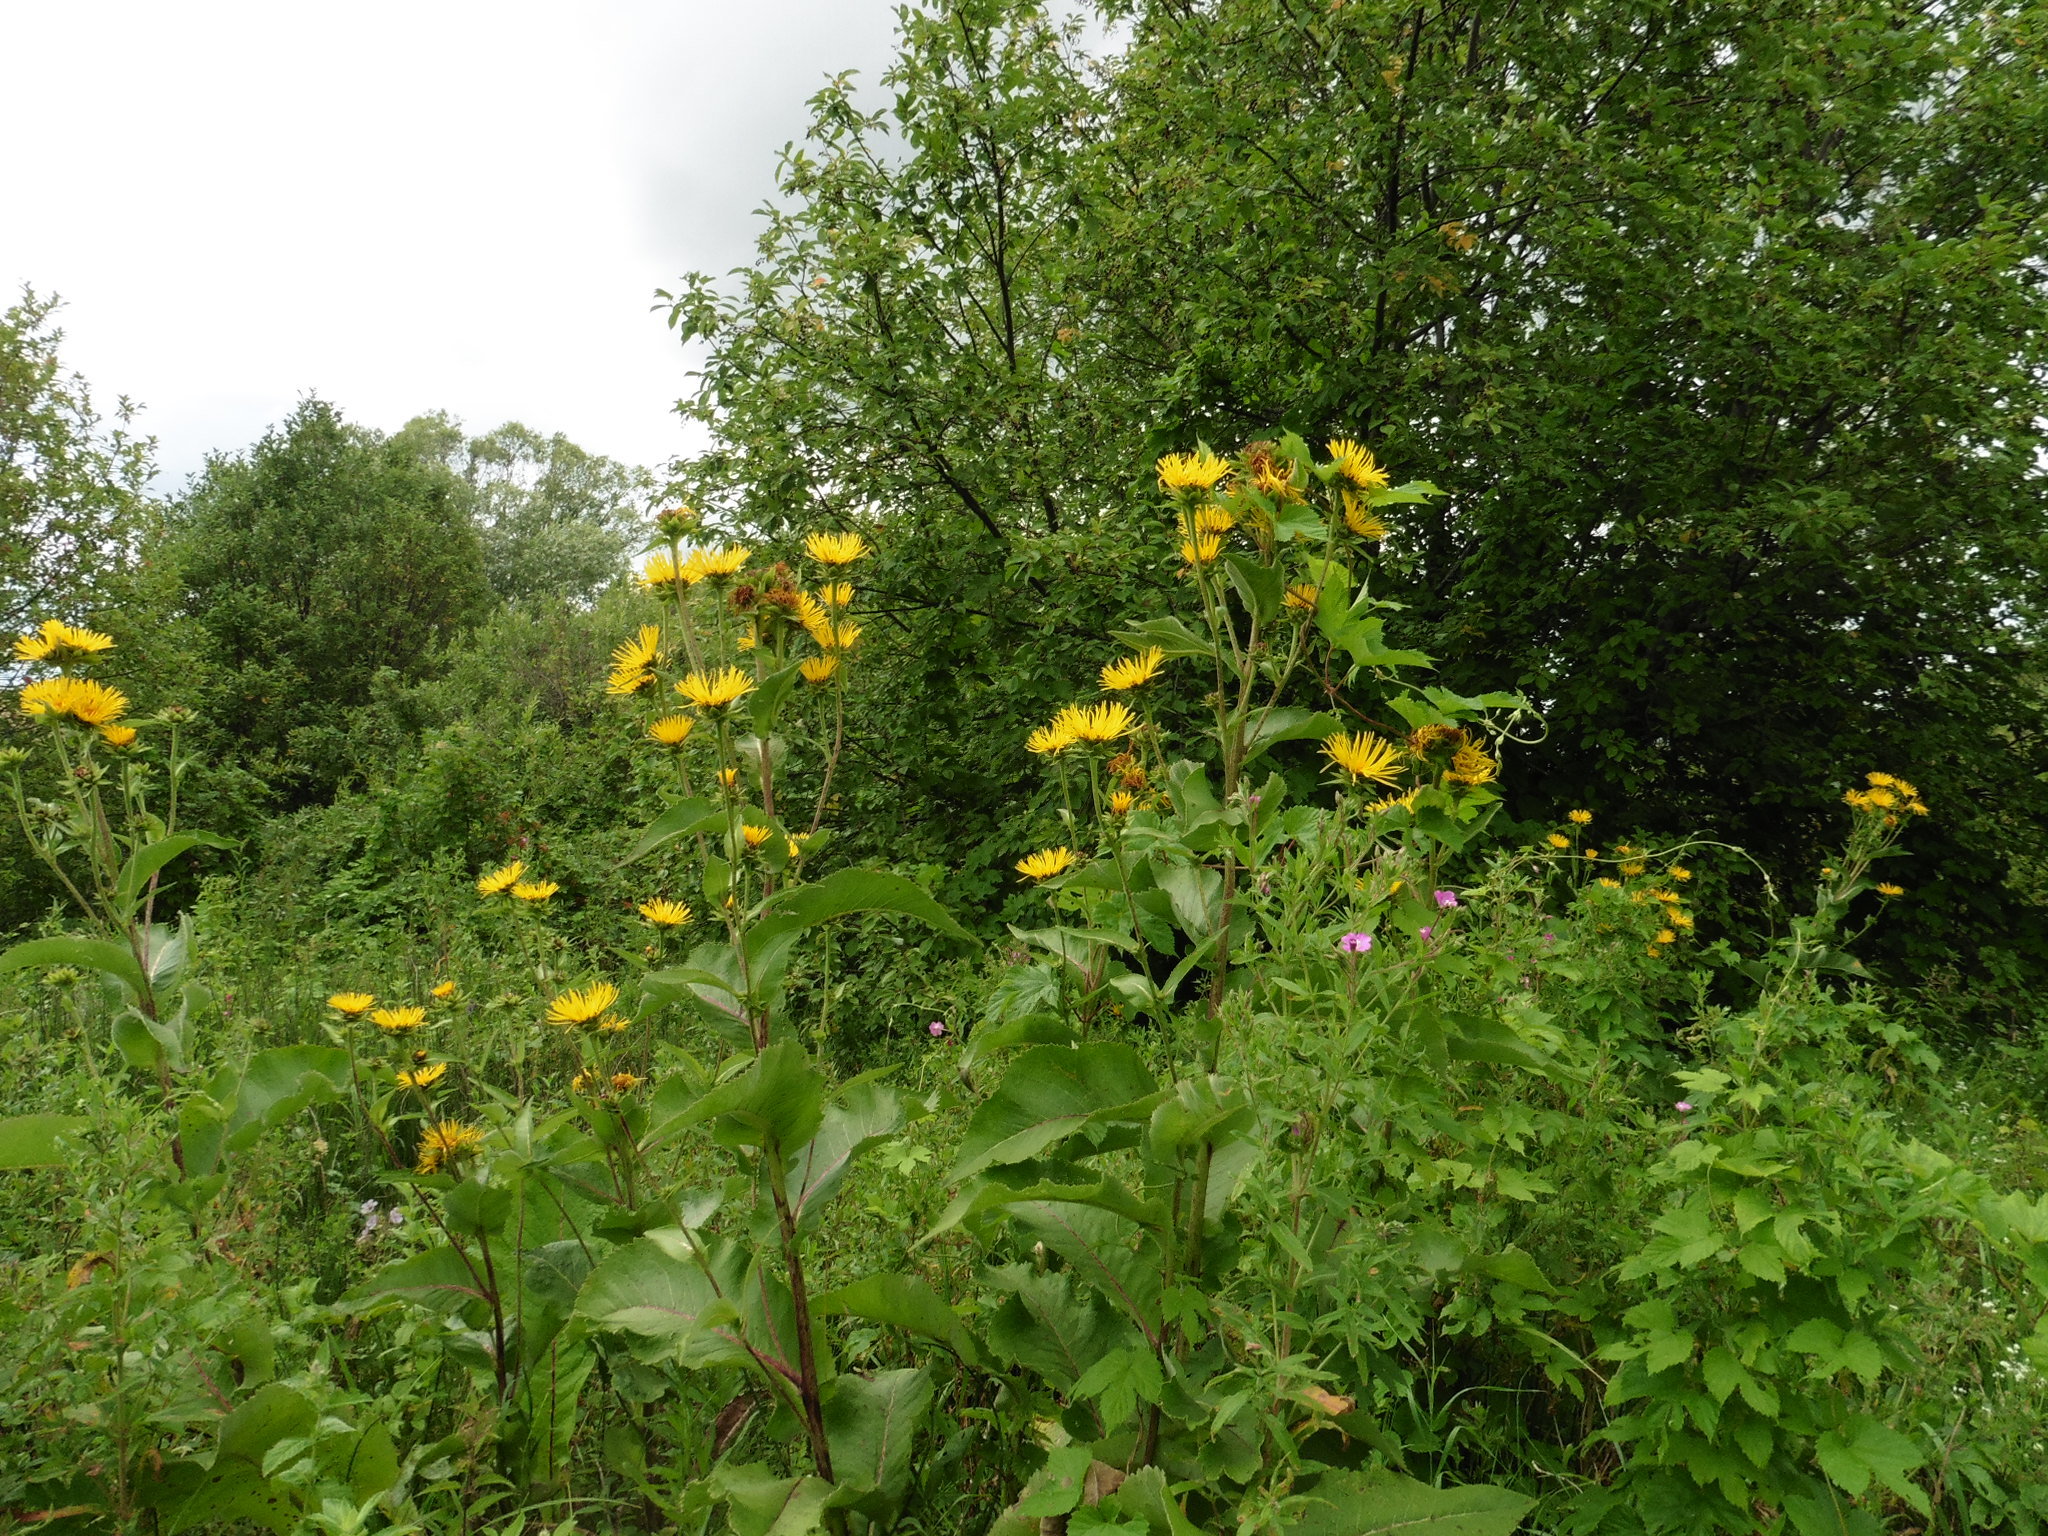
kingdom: Plantae
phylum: Tracheophyta
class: Magnoliopsida
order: Asterales
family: Asteraceae
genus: Inula
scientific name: Inula helenium
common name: Elecampane
